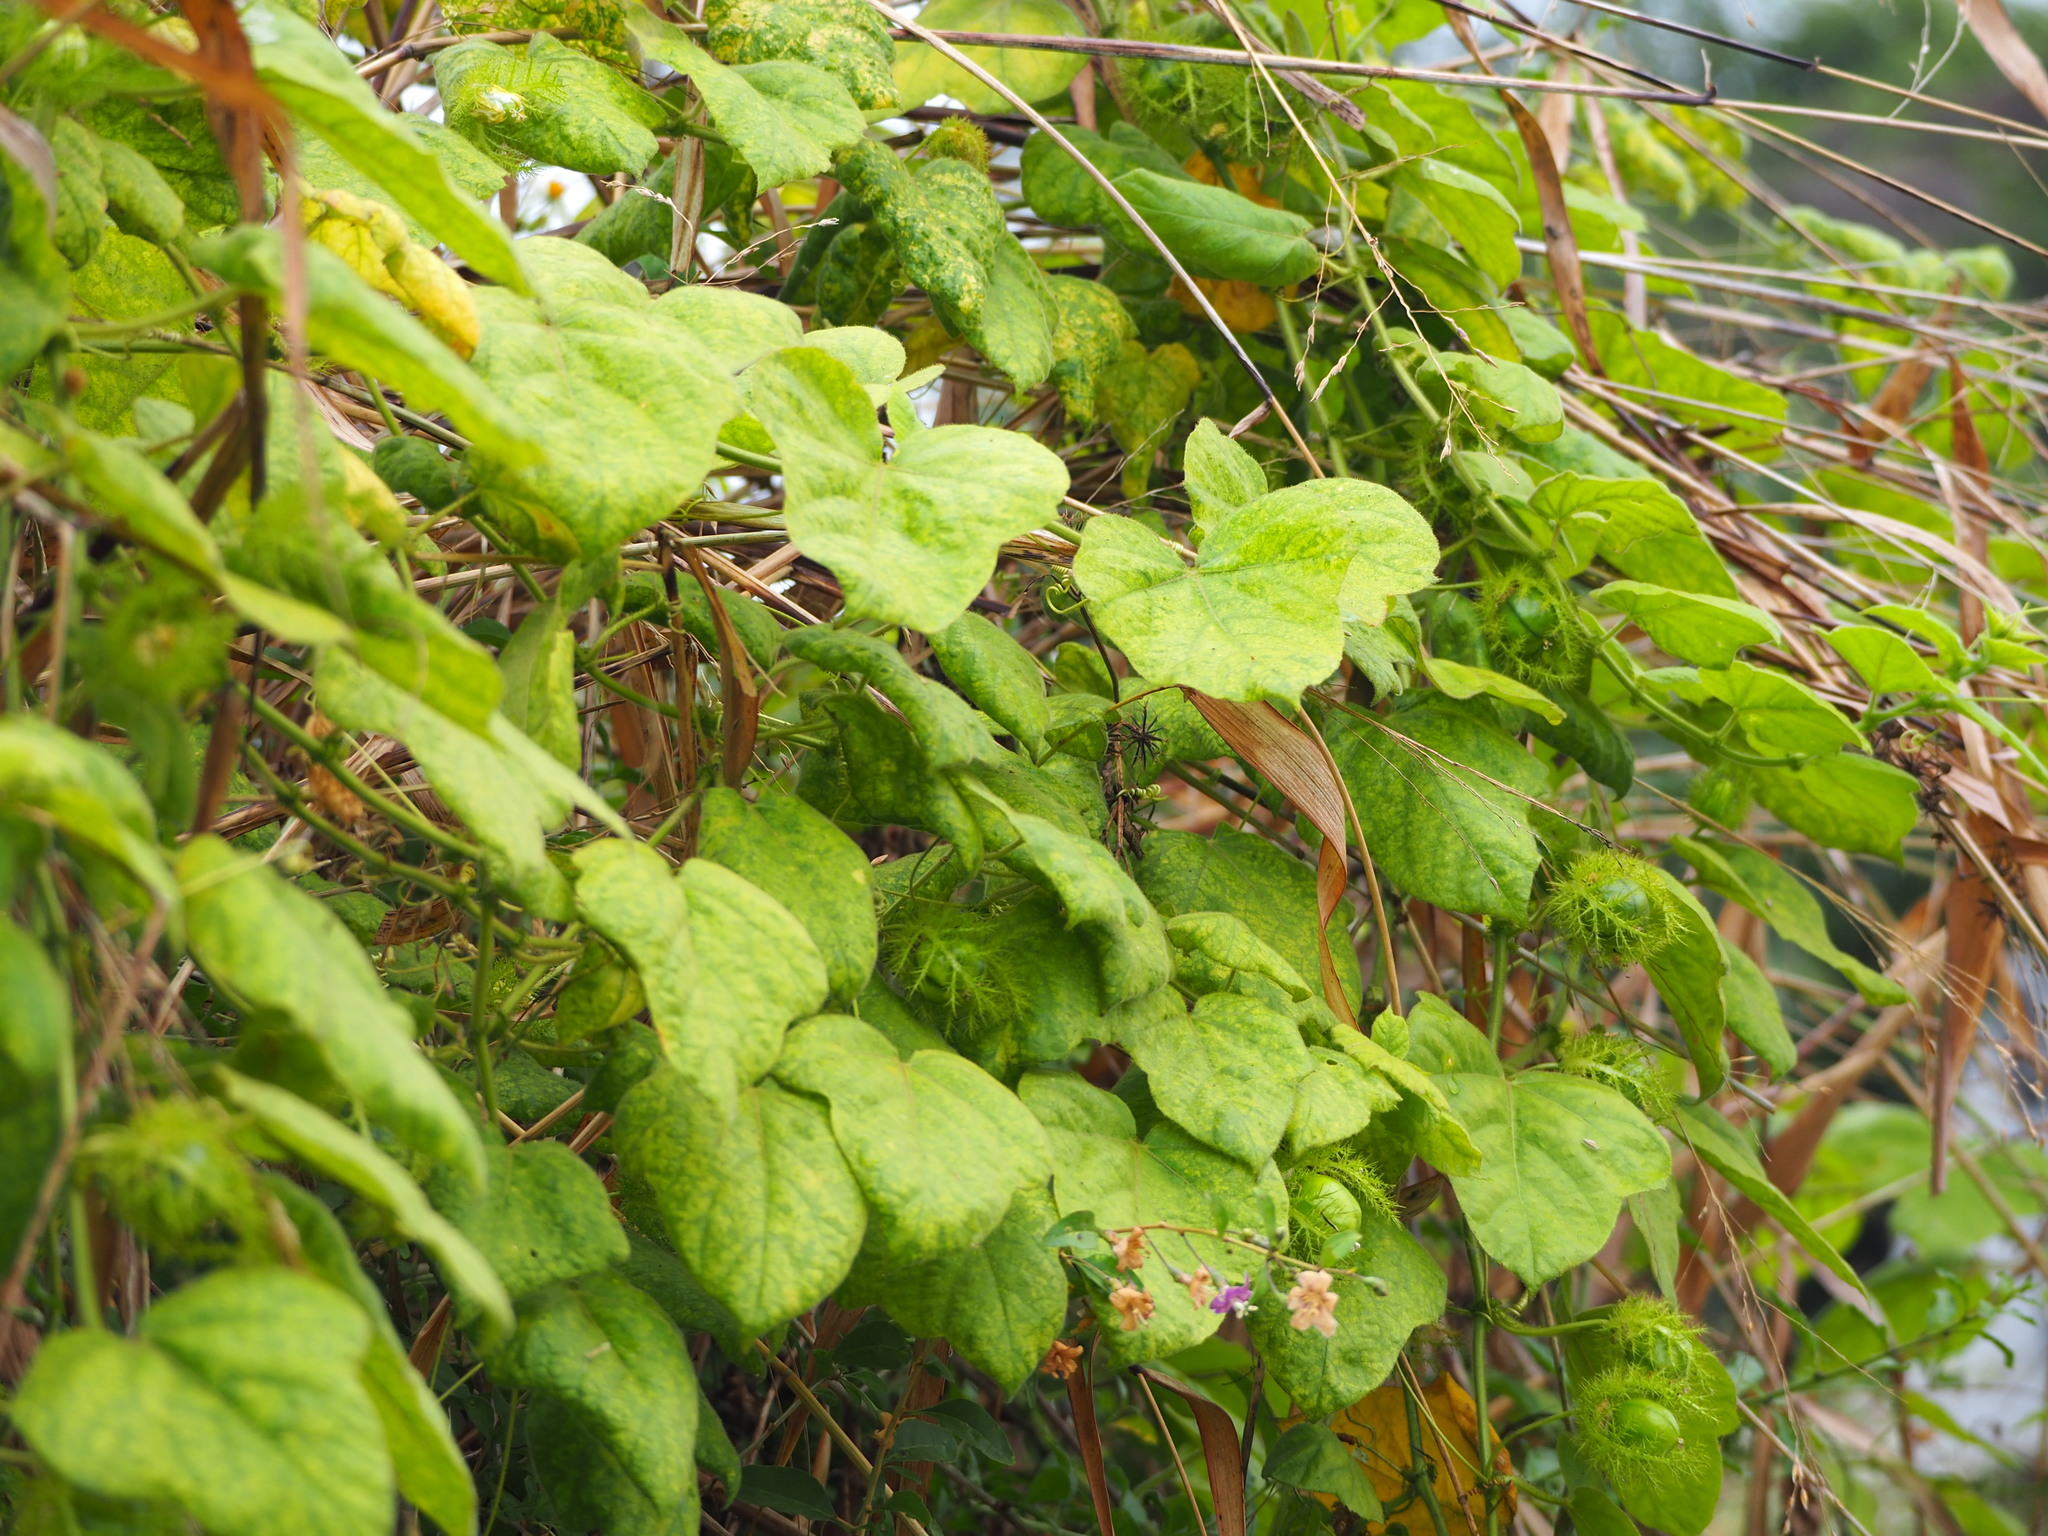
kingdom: Plantae
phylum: Tracheophyta
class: Magnoliopsida
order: Malpighiales
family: Passifloraceae
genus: Passiflora
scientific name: Passiflora vesicaria
